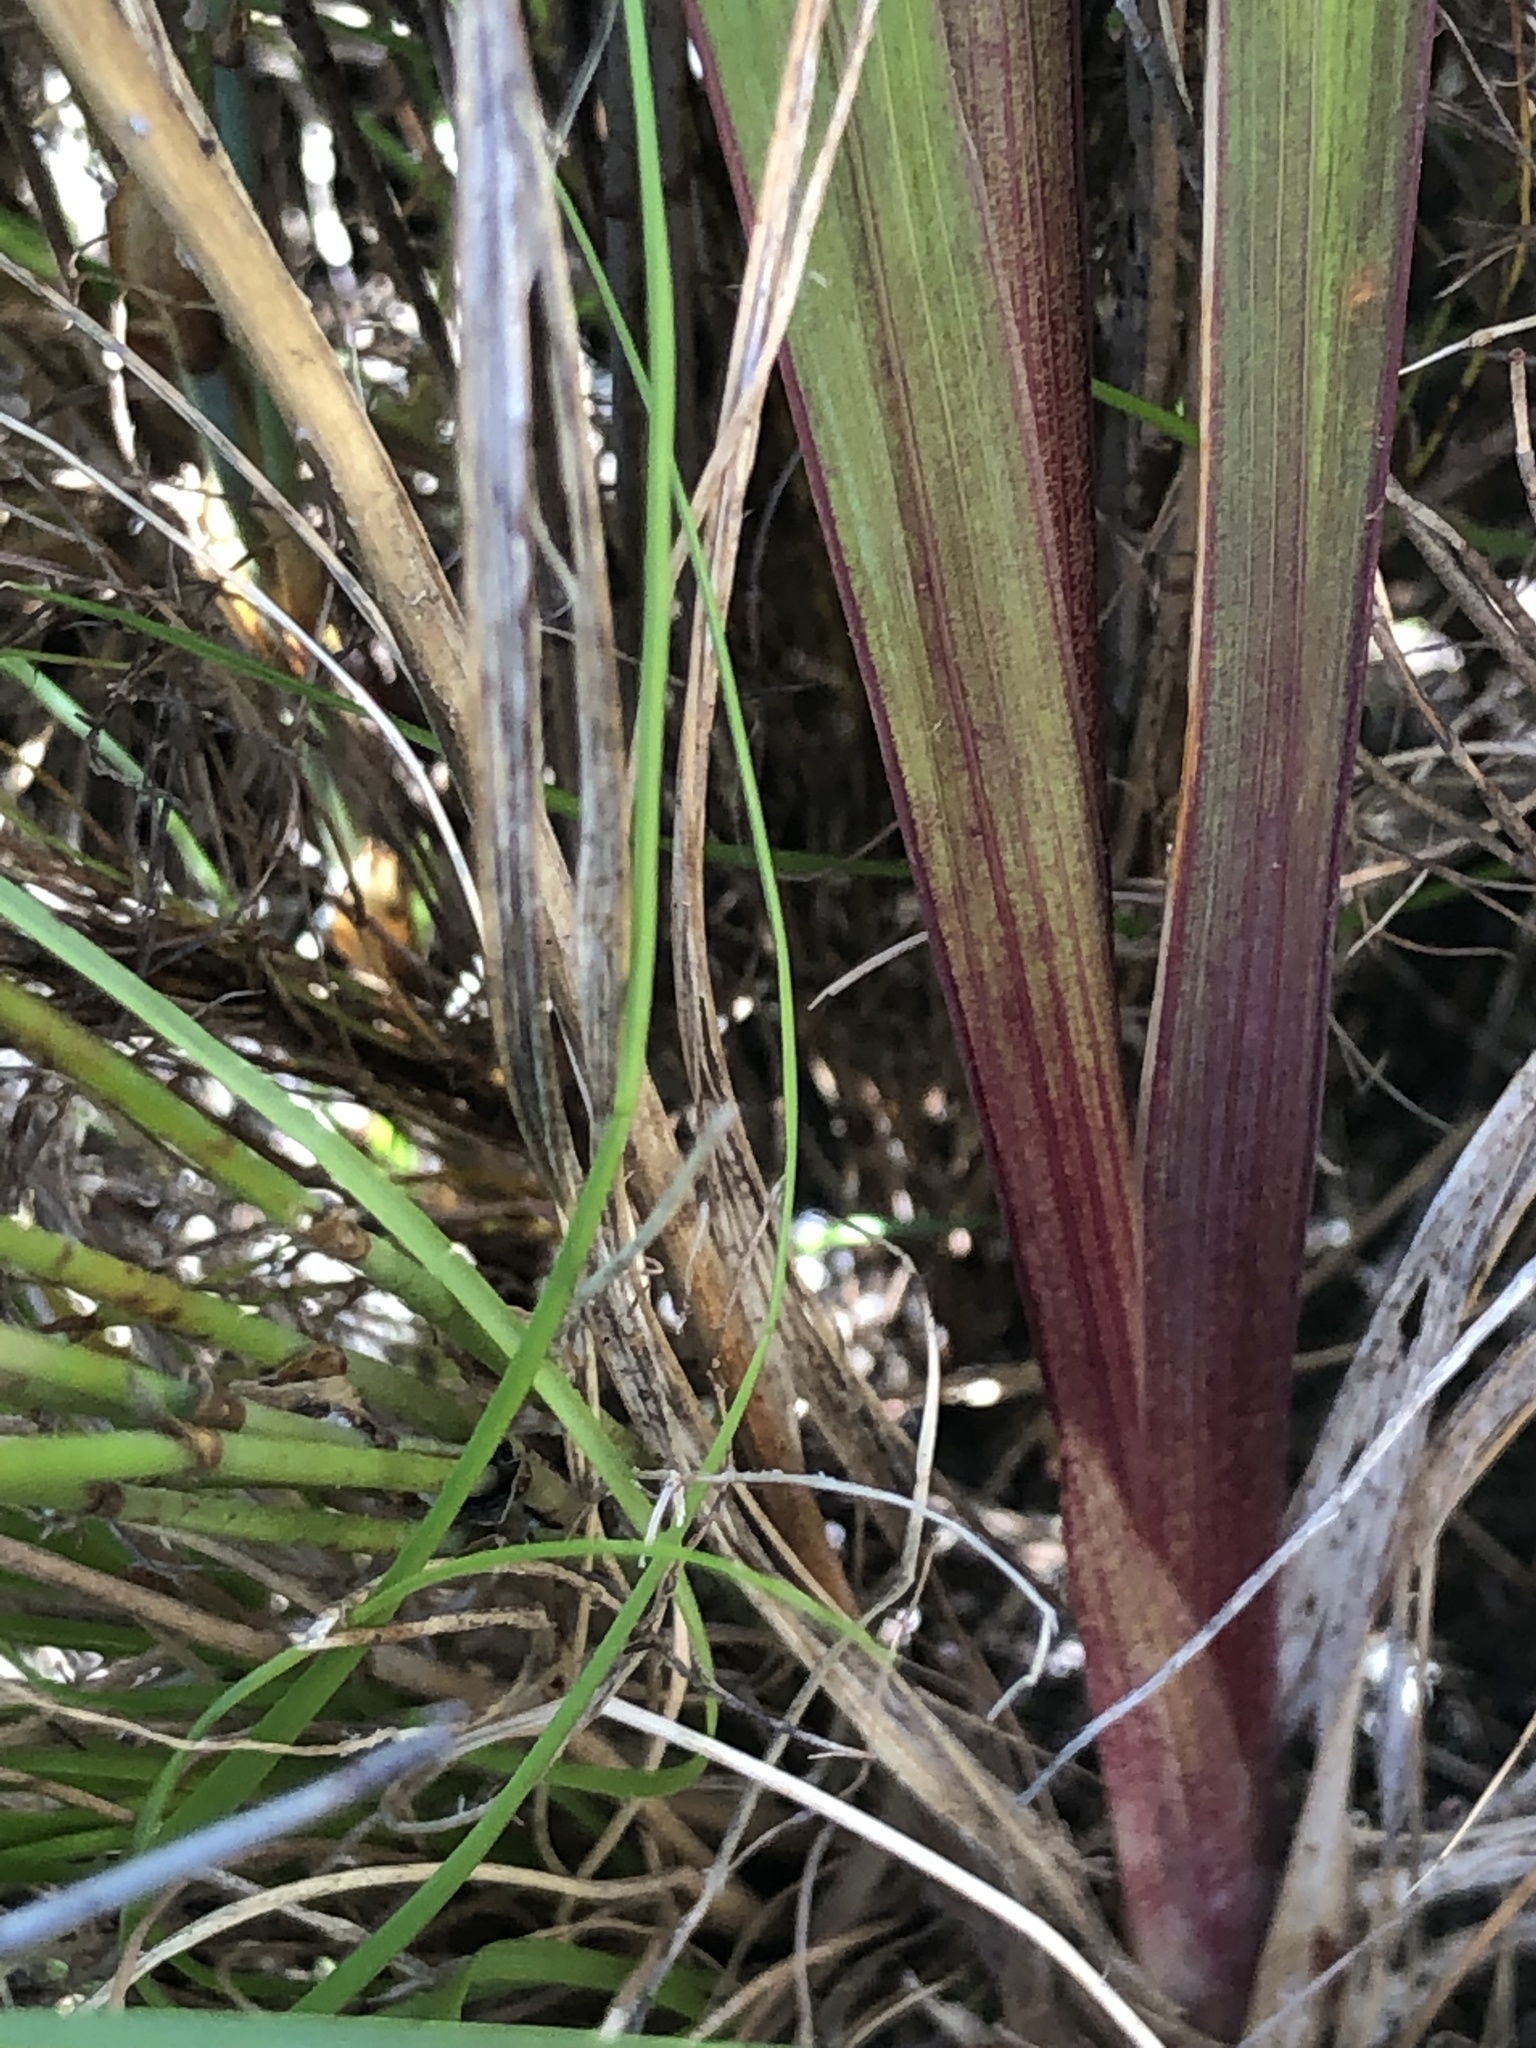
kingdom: Plantae
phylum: Tracheophyta
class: Liliopsida
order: Asparagales
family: Iridaceae
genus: Gladiolus
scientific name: Gladiolus miniatus
